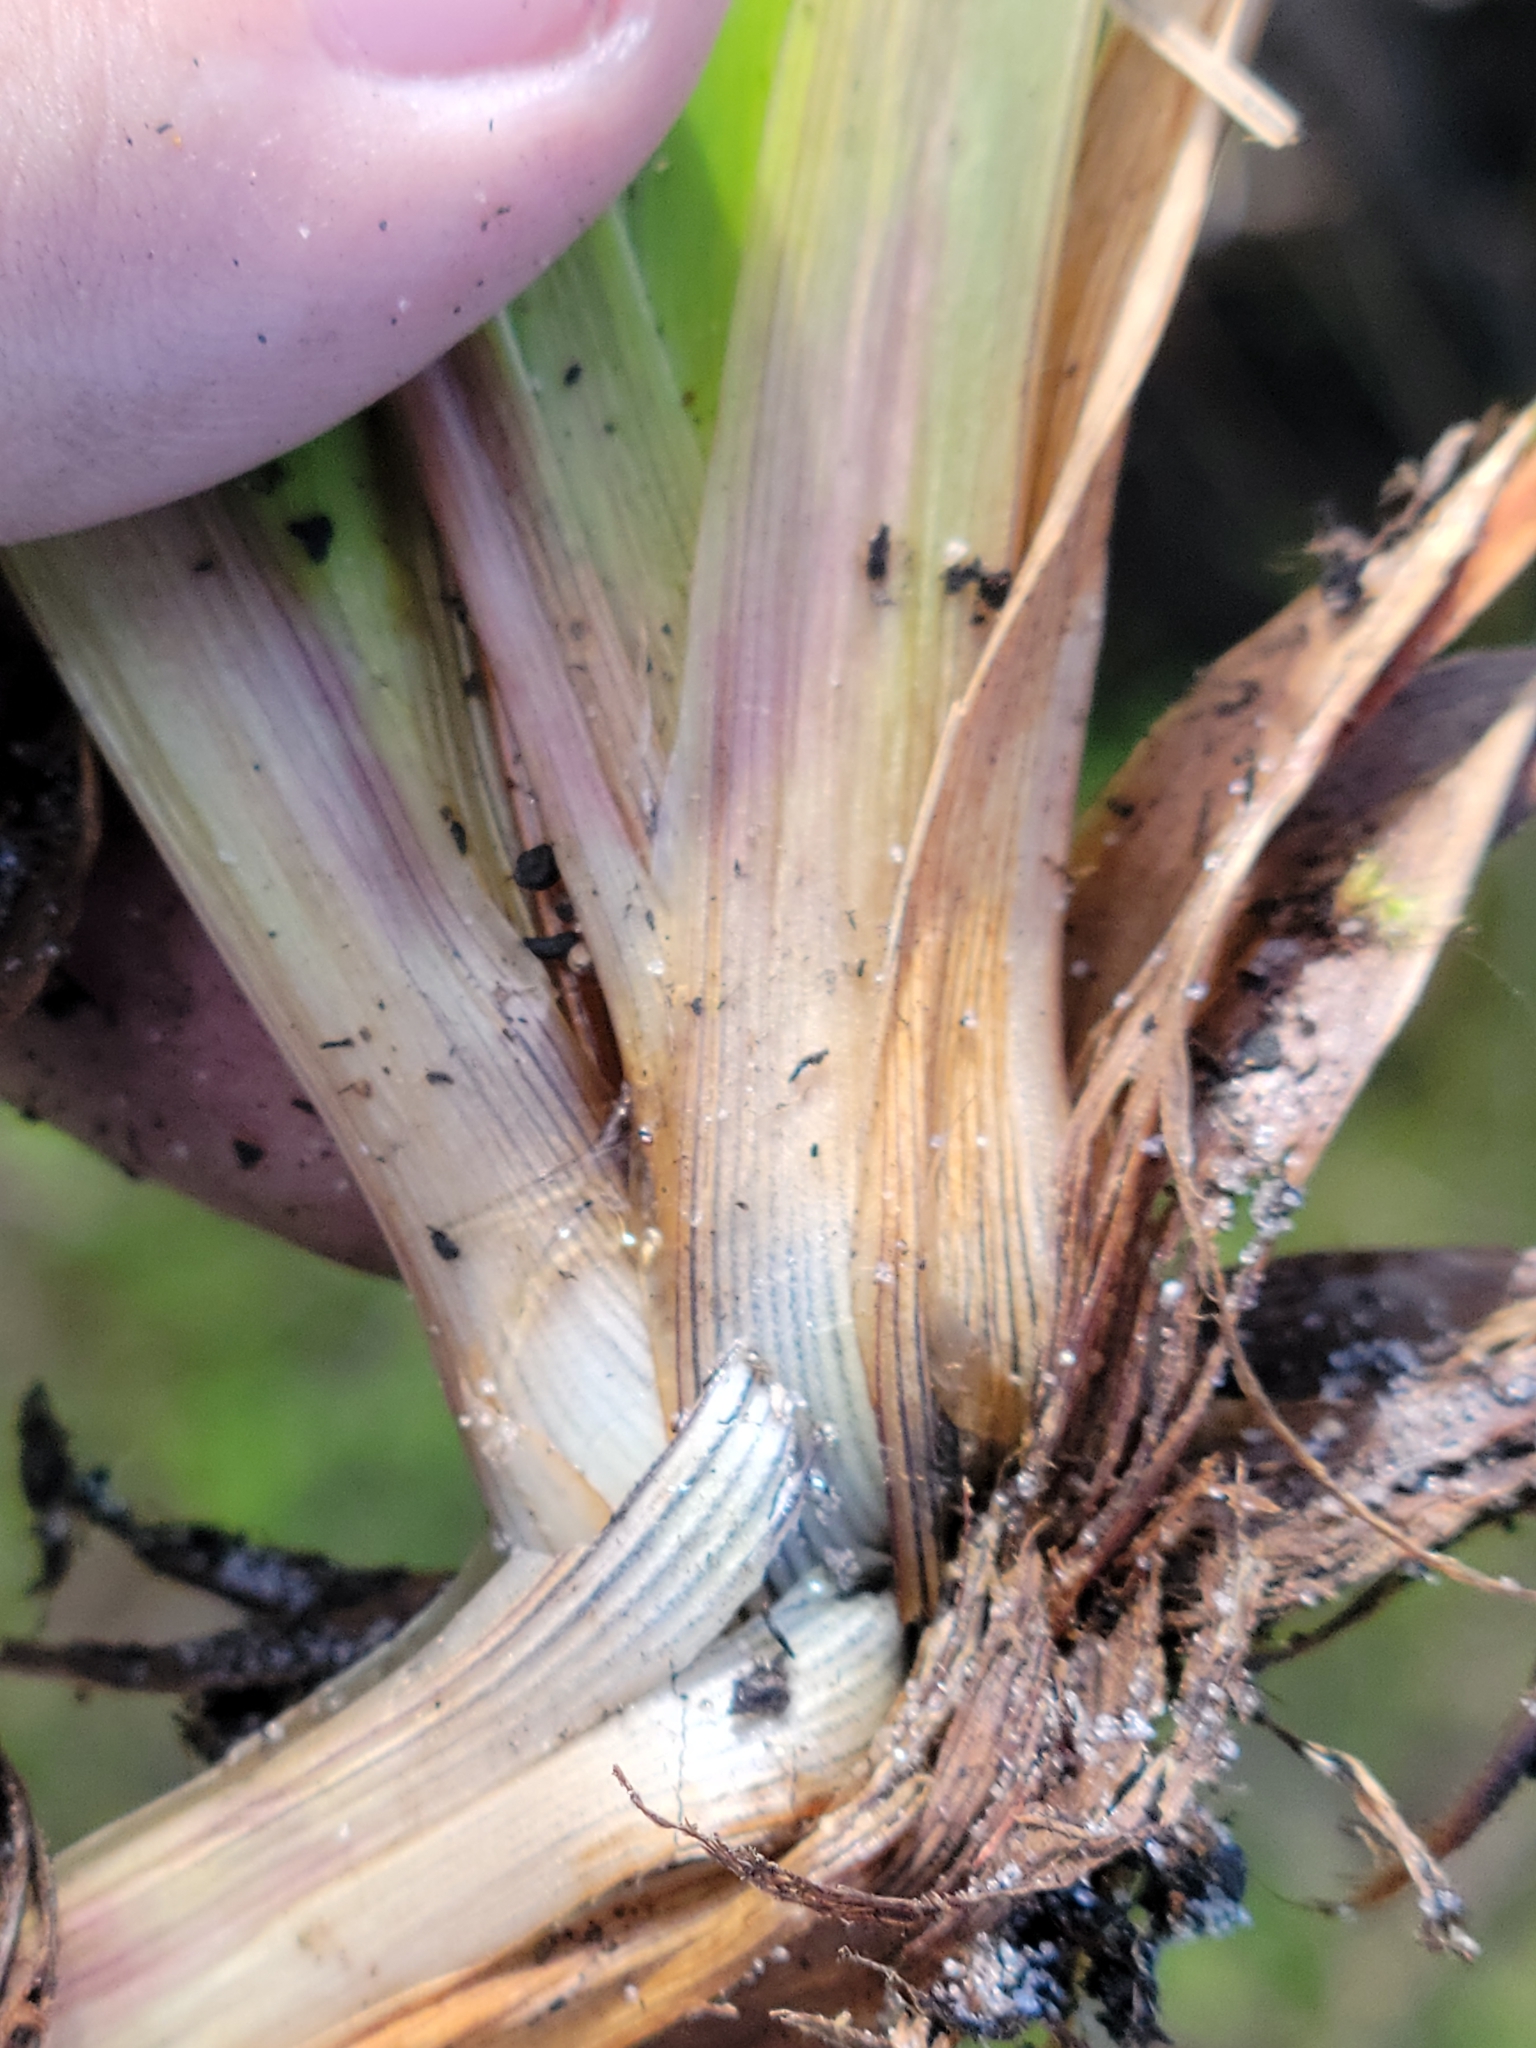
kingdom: Plantae
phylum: Tracheophyta
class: Liliopsida
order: Poales
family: Xyridaceae
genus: Xyris
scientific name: Xyris ambigua
